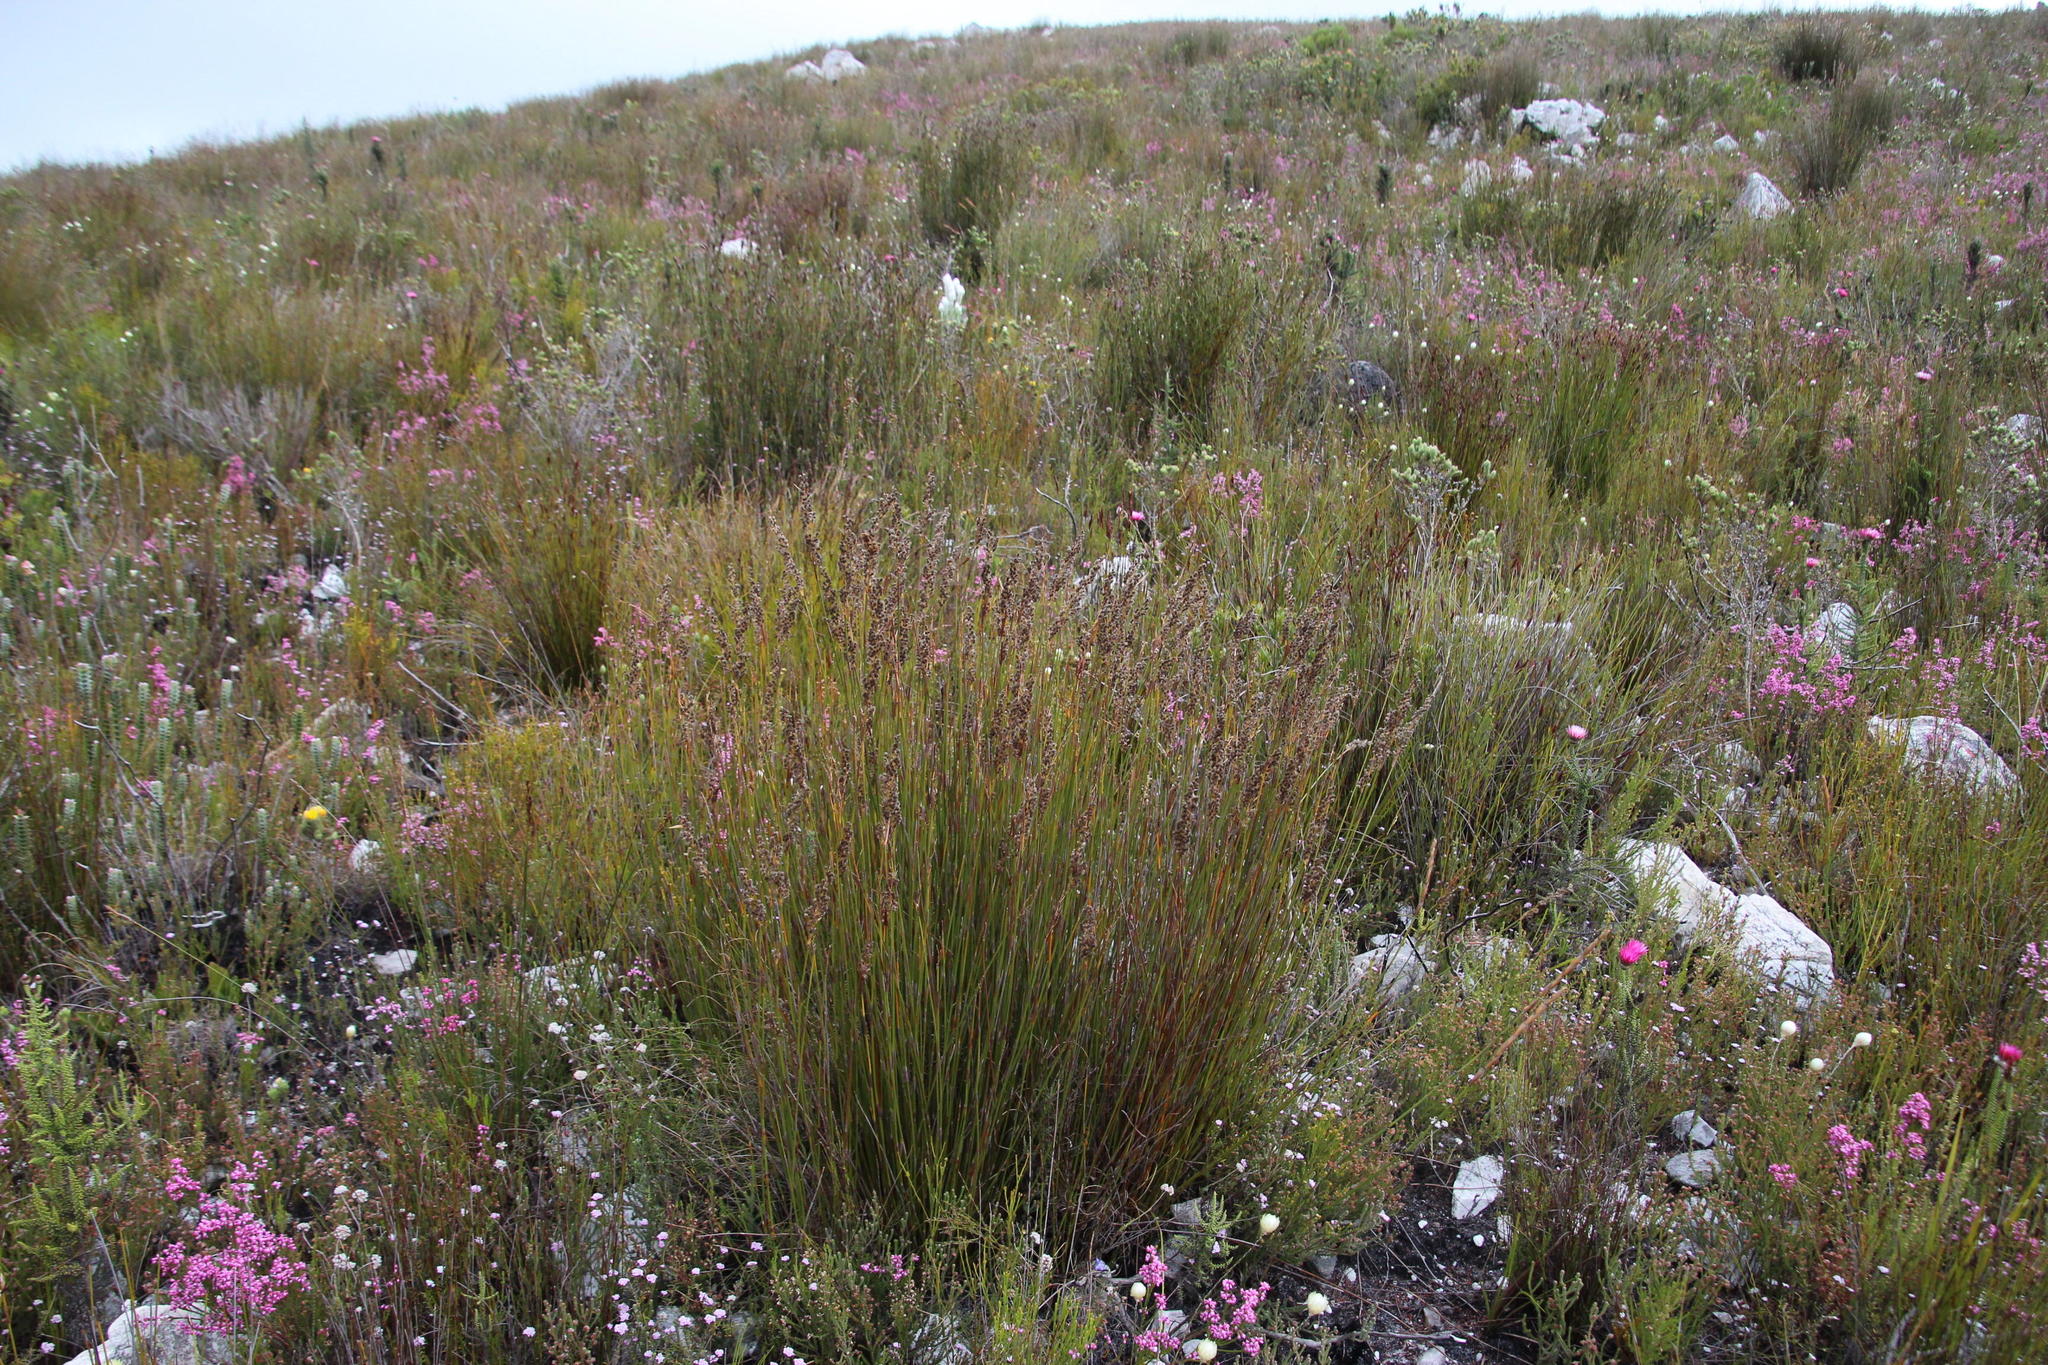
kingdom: Plantae
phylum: Tracheophyta
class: Liliopsida
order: Poales
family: Restionaceae
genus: Hypodiscus
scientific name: Hypodiscus argenteus
